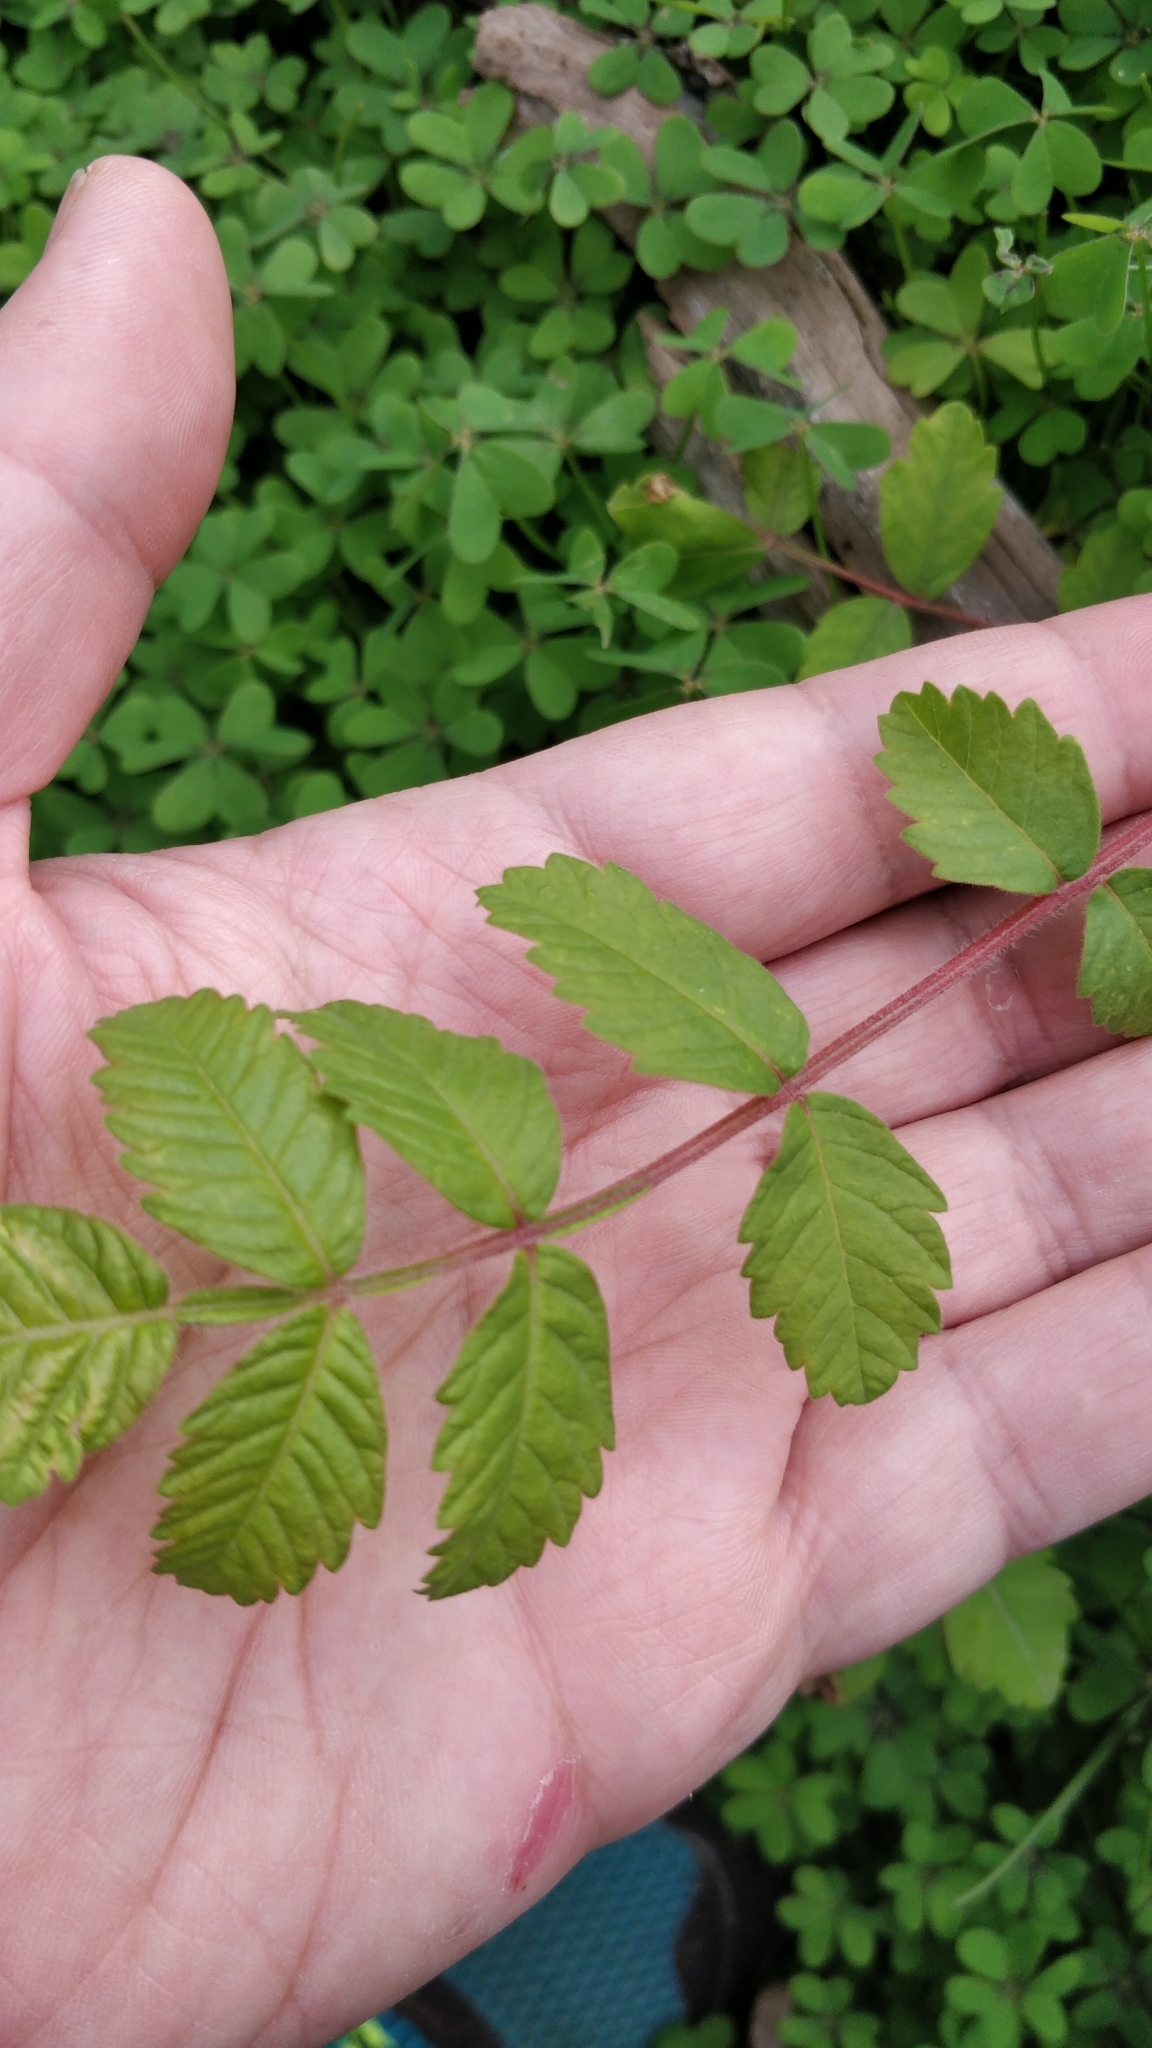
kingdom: Plantae
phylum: Tracheophyta
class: Magnoliopsida
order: Sapindales
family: Anacardiaceae
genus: Rhus
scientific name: Rhus coriaria
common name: Tanner's sumach
